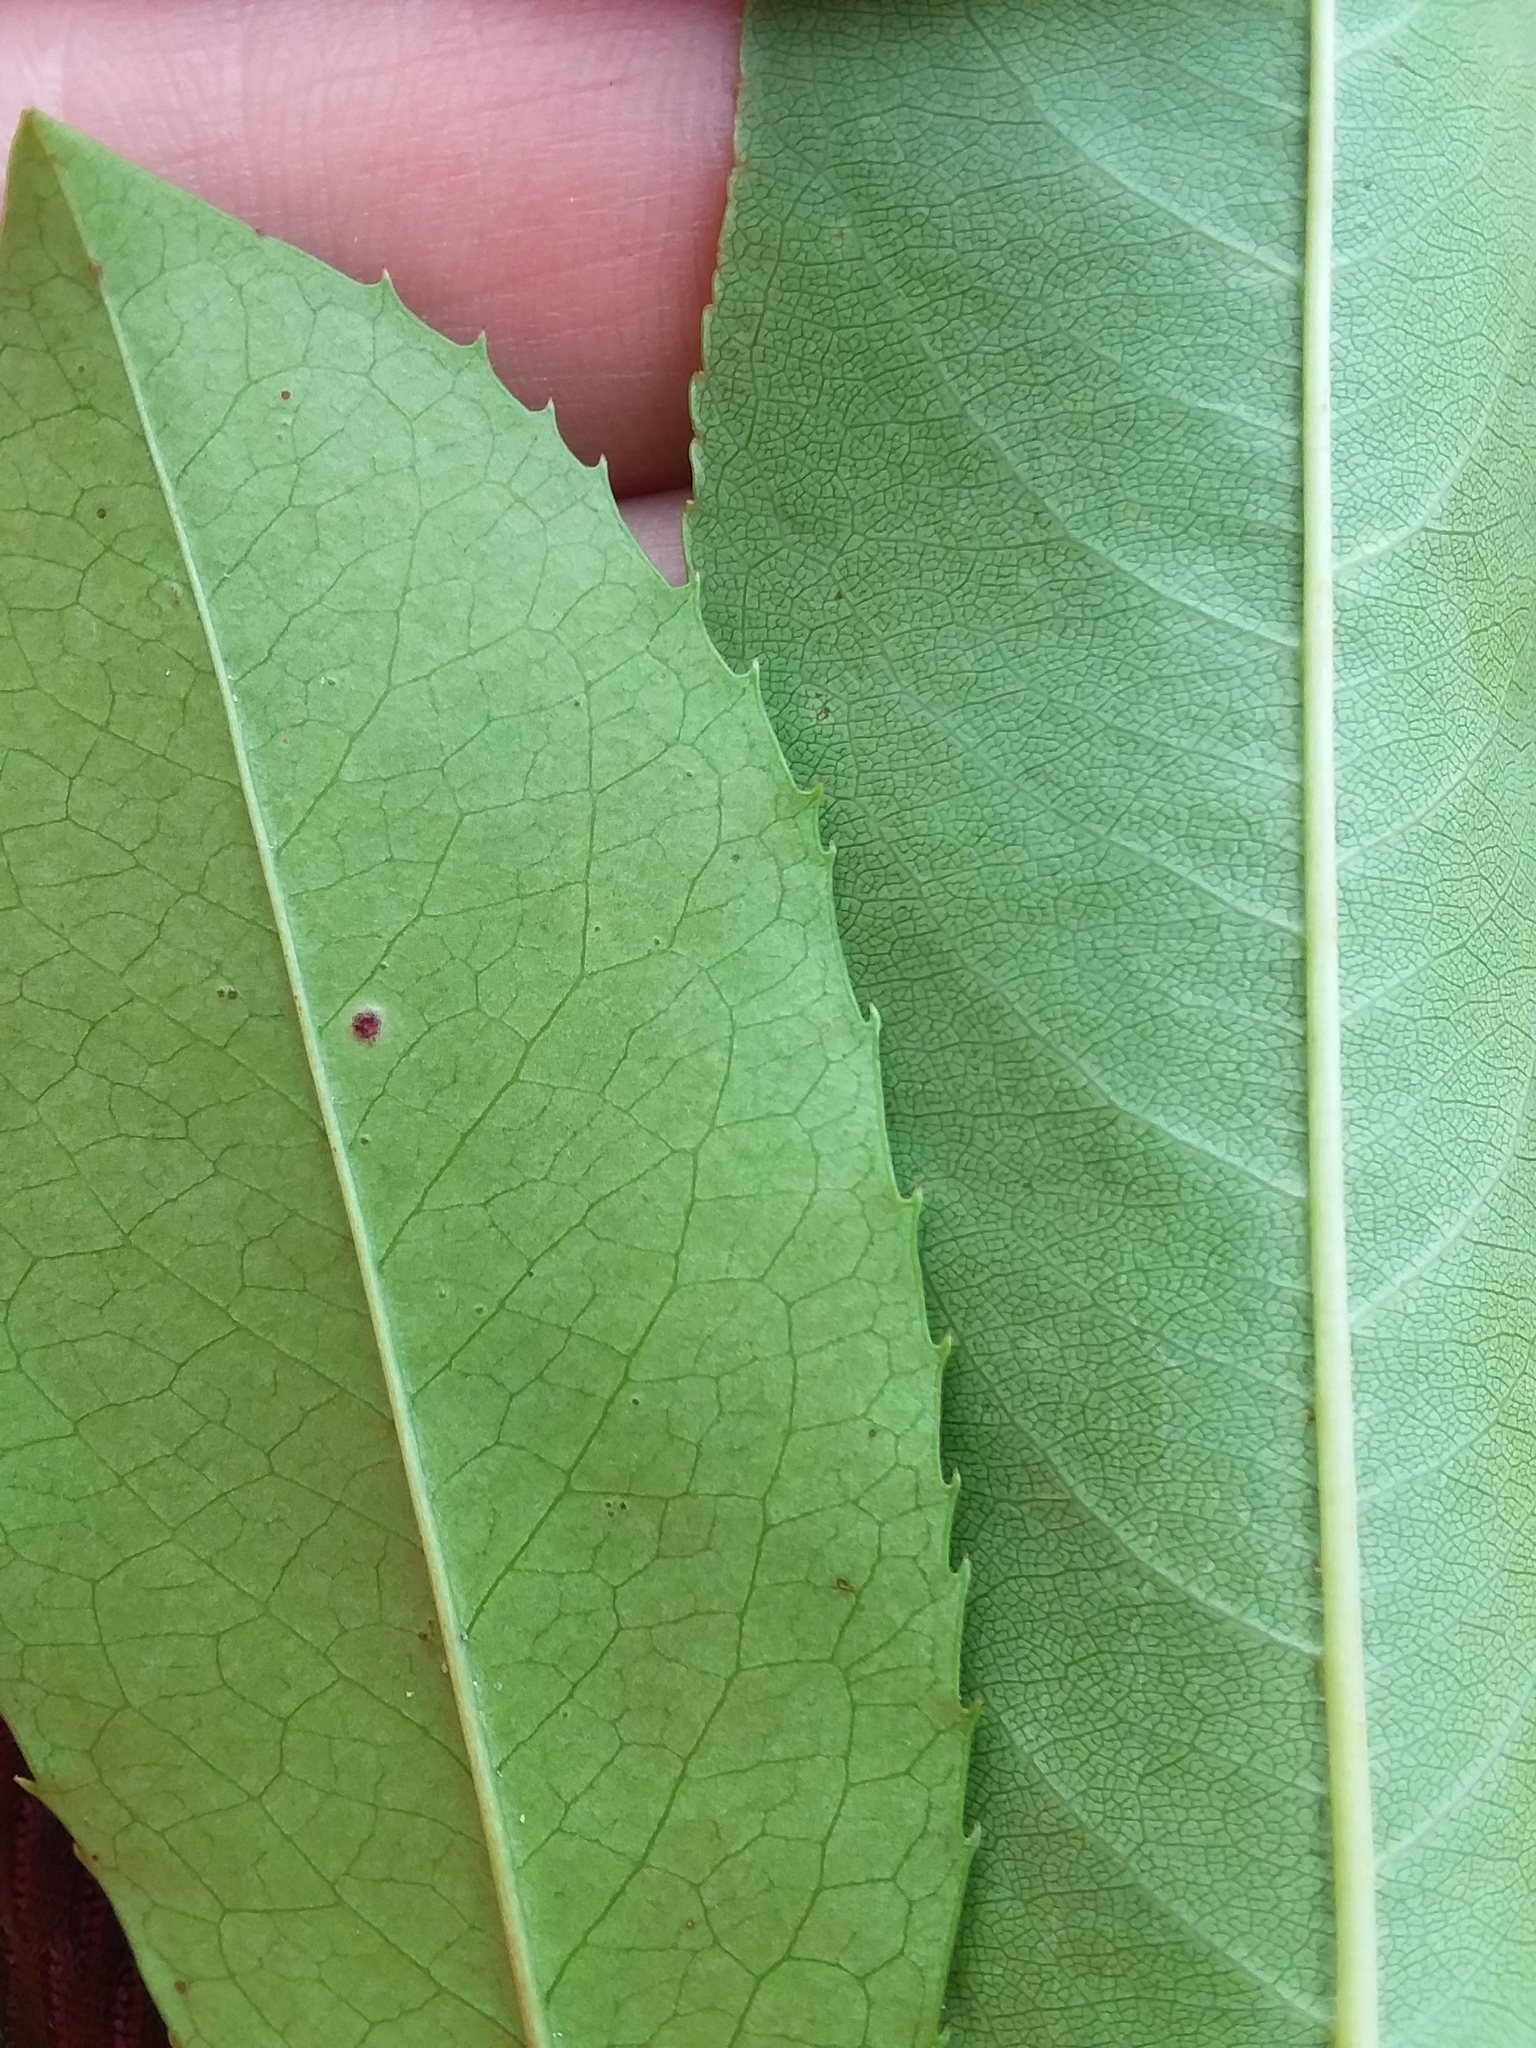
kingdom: Plantae
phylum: Tracheophyta
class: Magnoliopsida
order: Rosales
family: Rosaceae
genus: Prunus
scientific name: Prunus caroliniana
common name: Carolina laurel cherry
